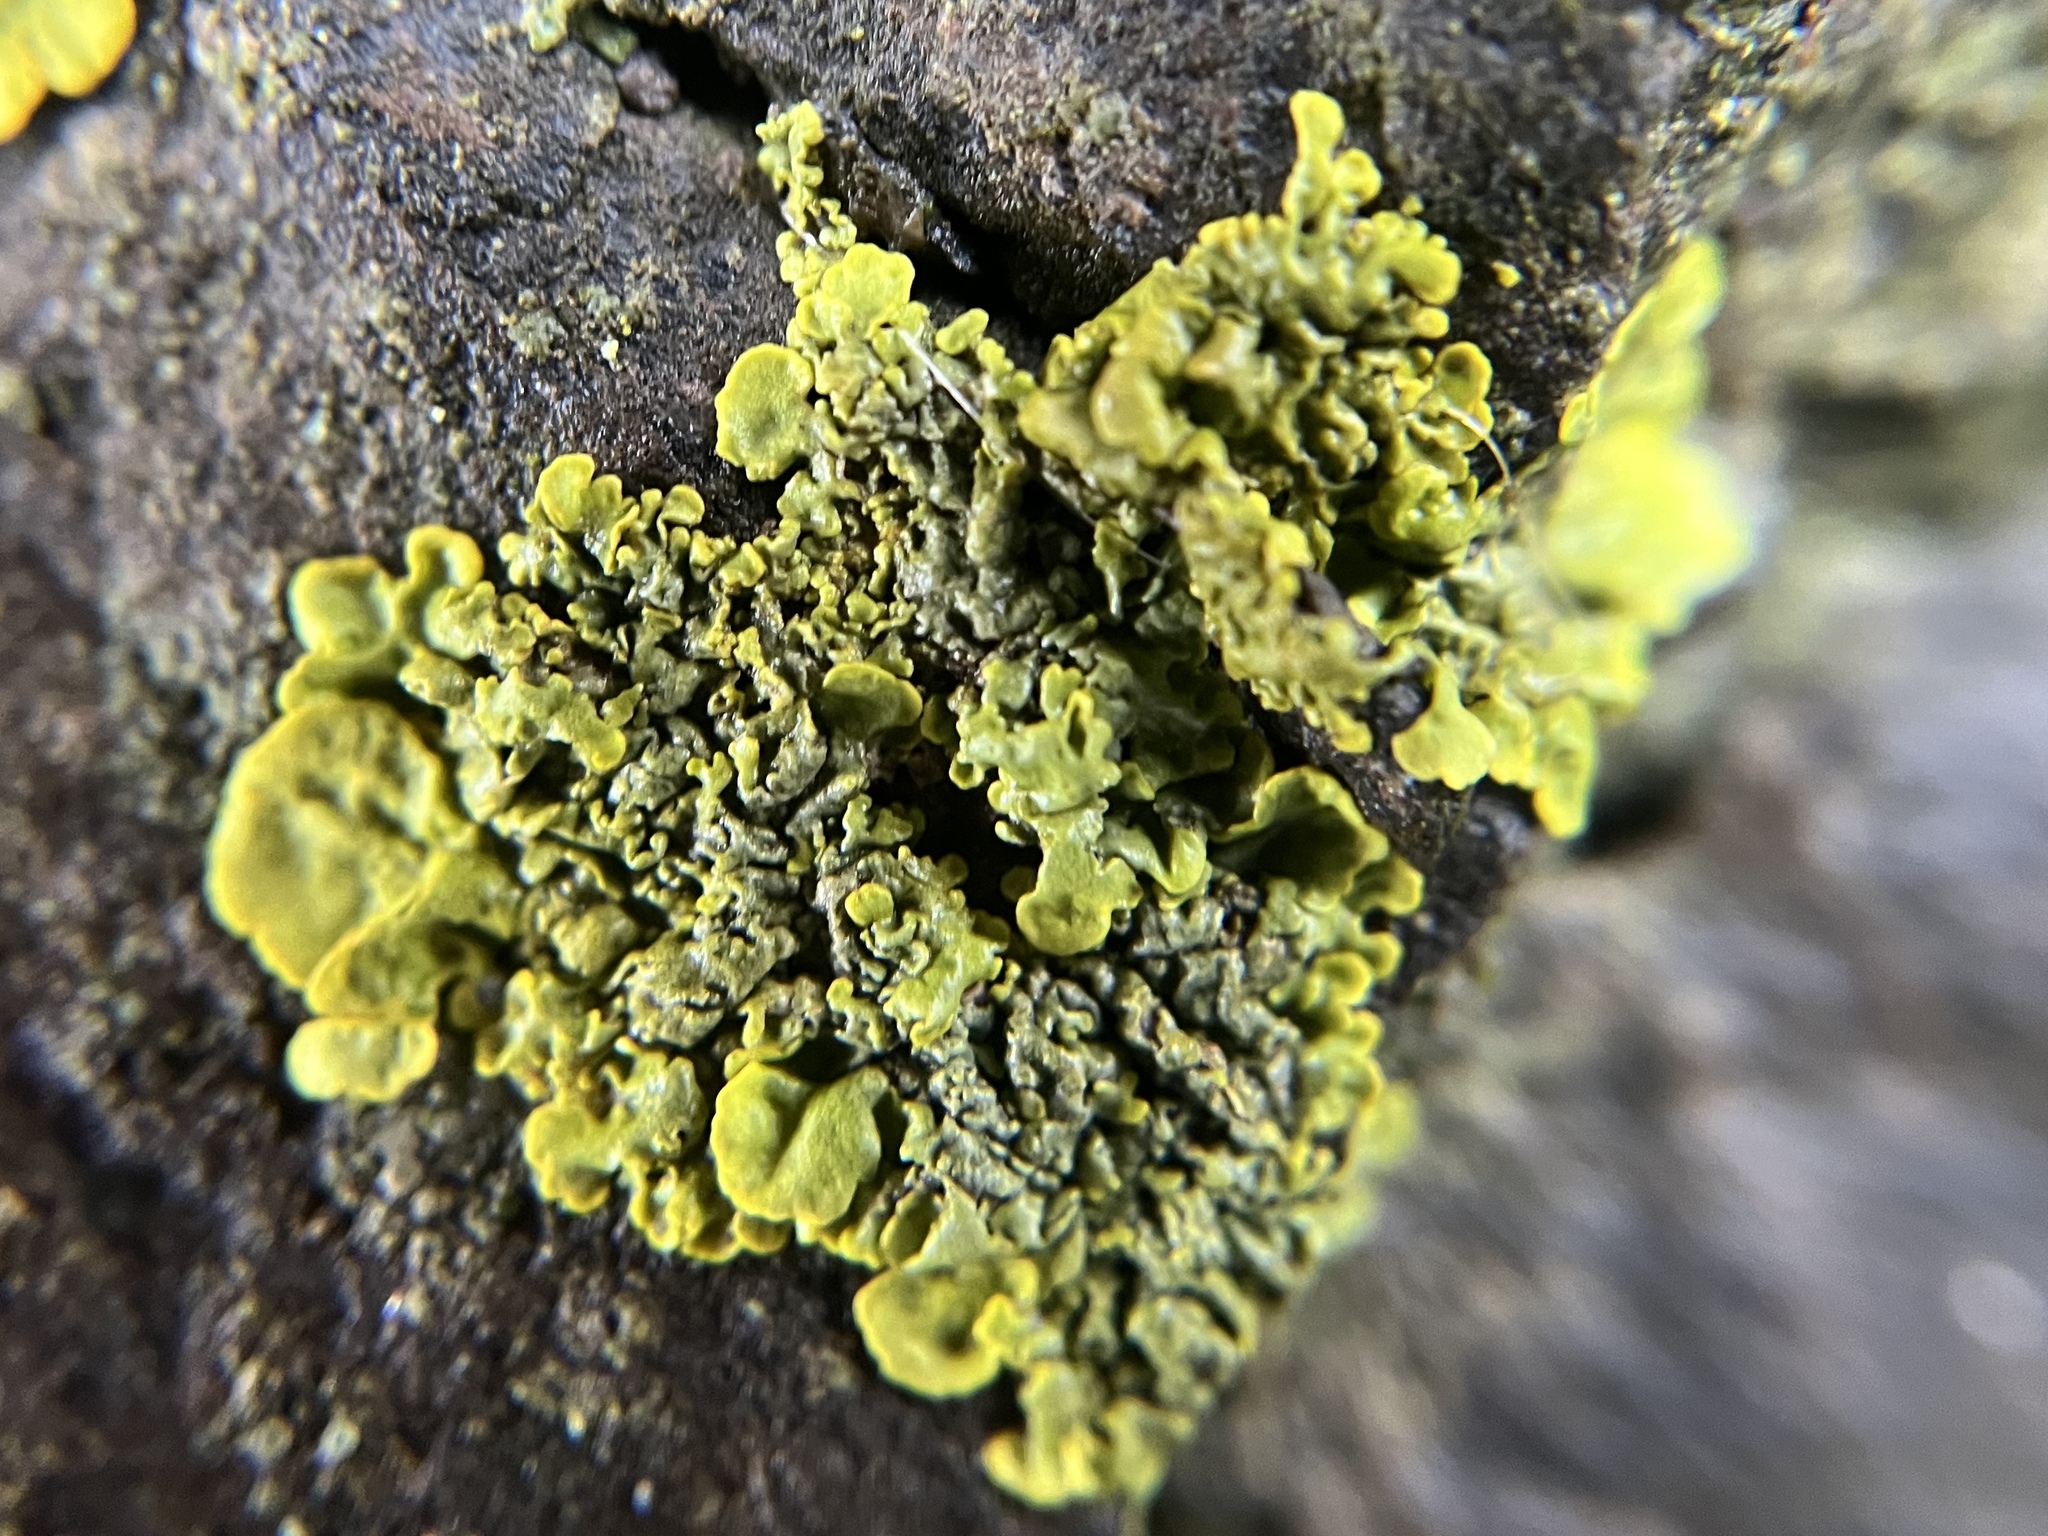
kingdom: Fungi
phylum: Ascomycota
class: Lecanoromycetes
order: Teloschistales
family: Teloschistaceae
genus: Xanthoria
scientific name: Xanthoria parietina
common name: Common orange lichen
